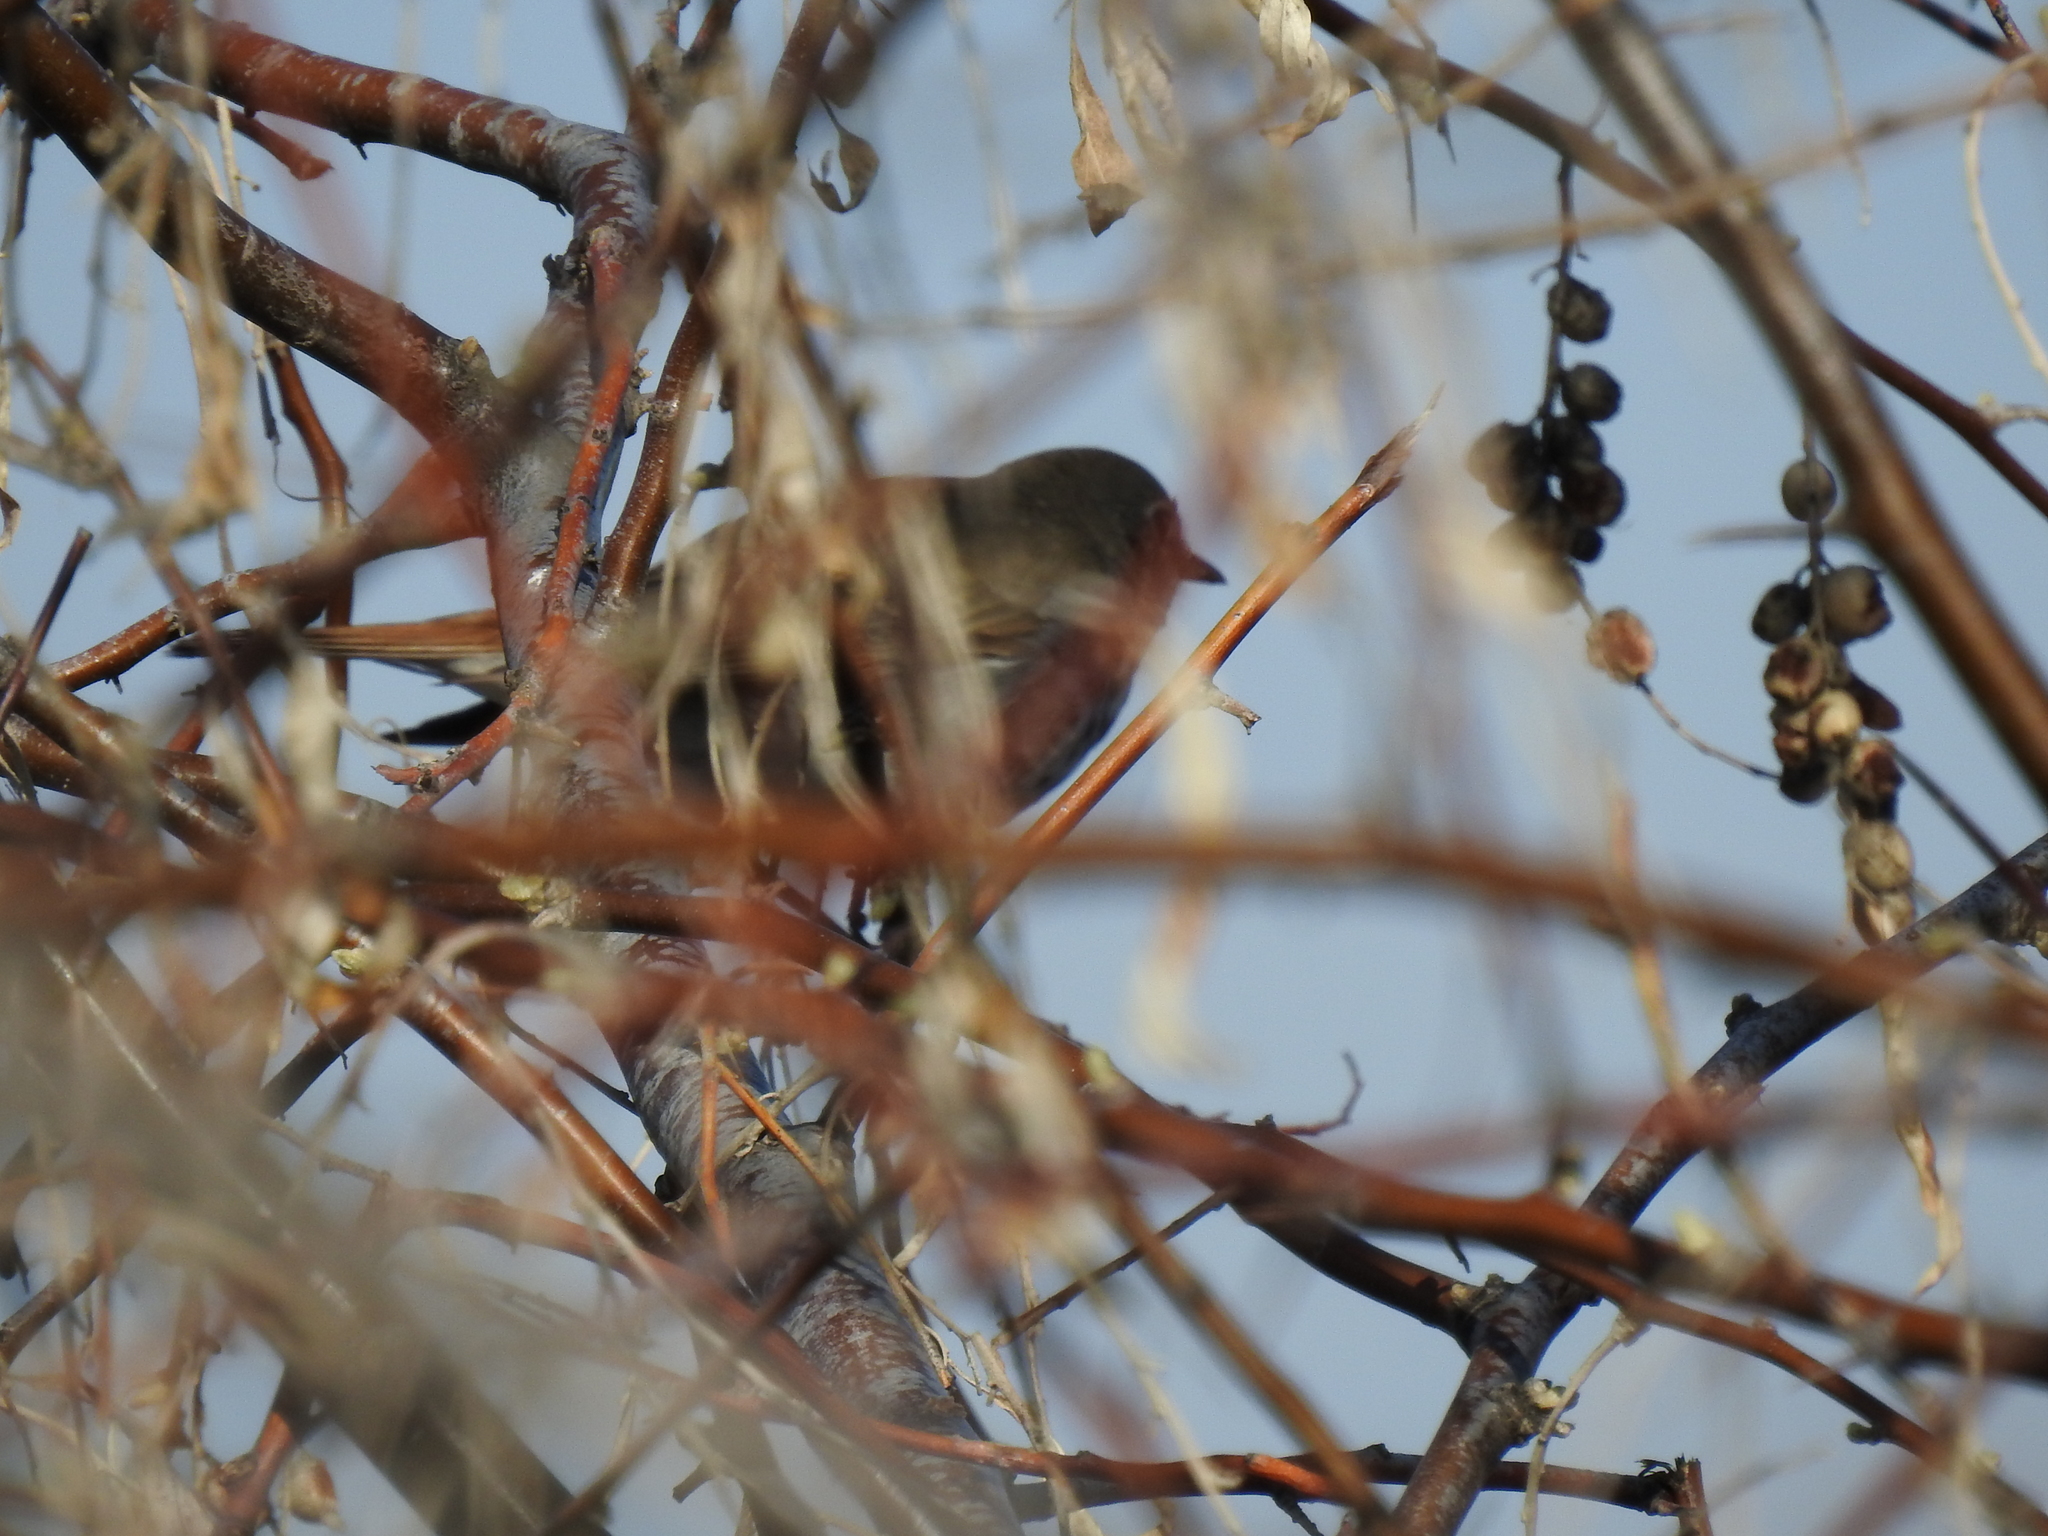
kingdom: Animalia
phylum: Chordata
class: Aves
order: Passeriformes
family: Turdidae
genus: Catharus
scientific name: Catharus guttatus
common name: Hermit thrush
